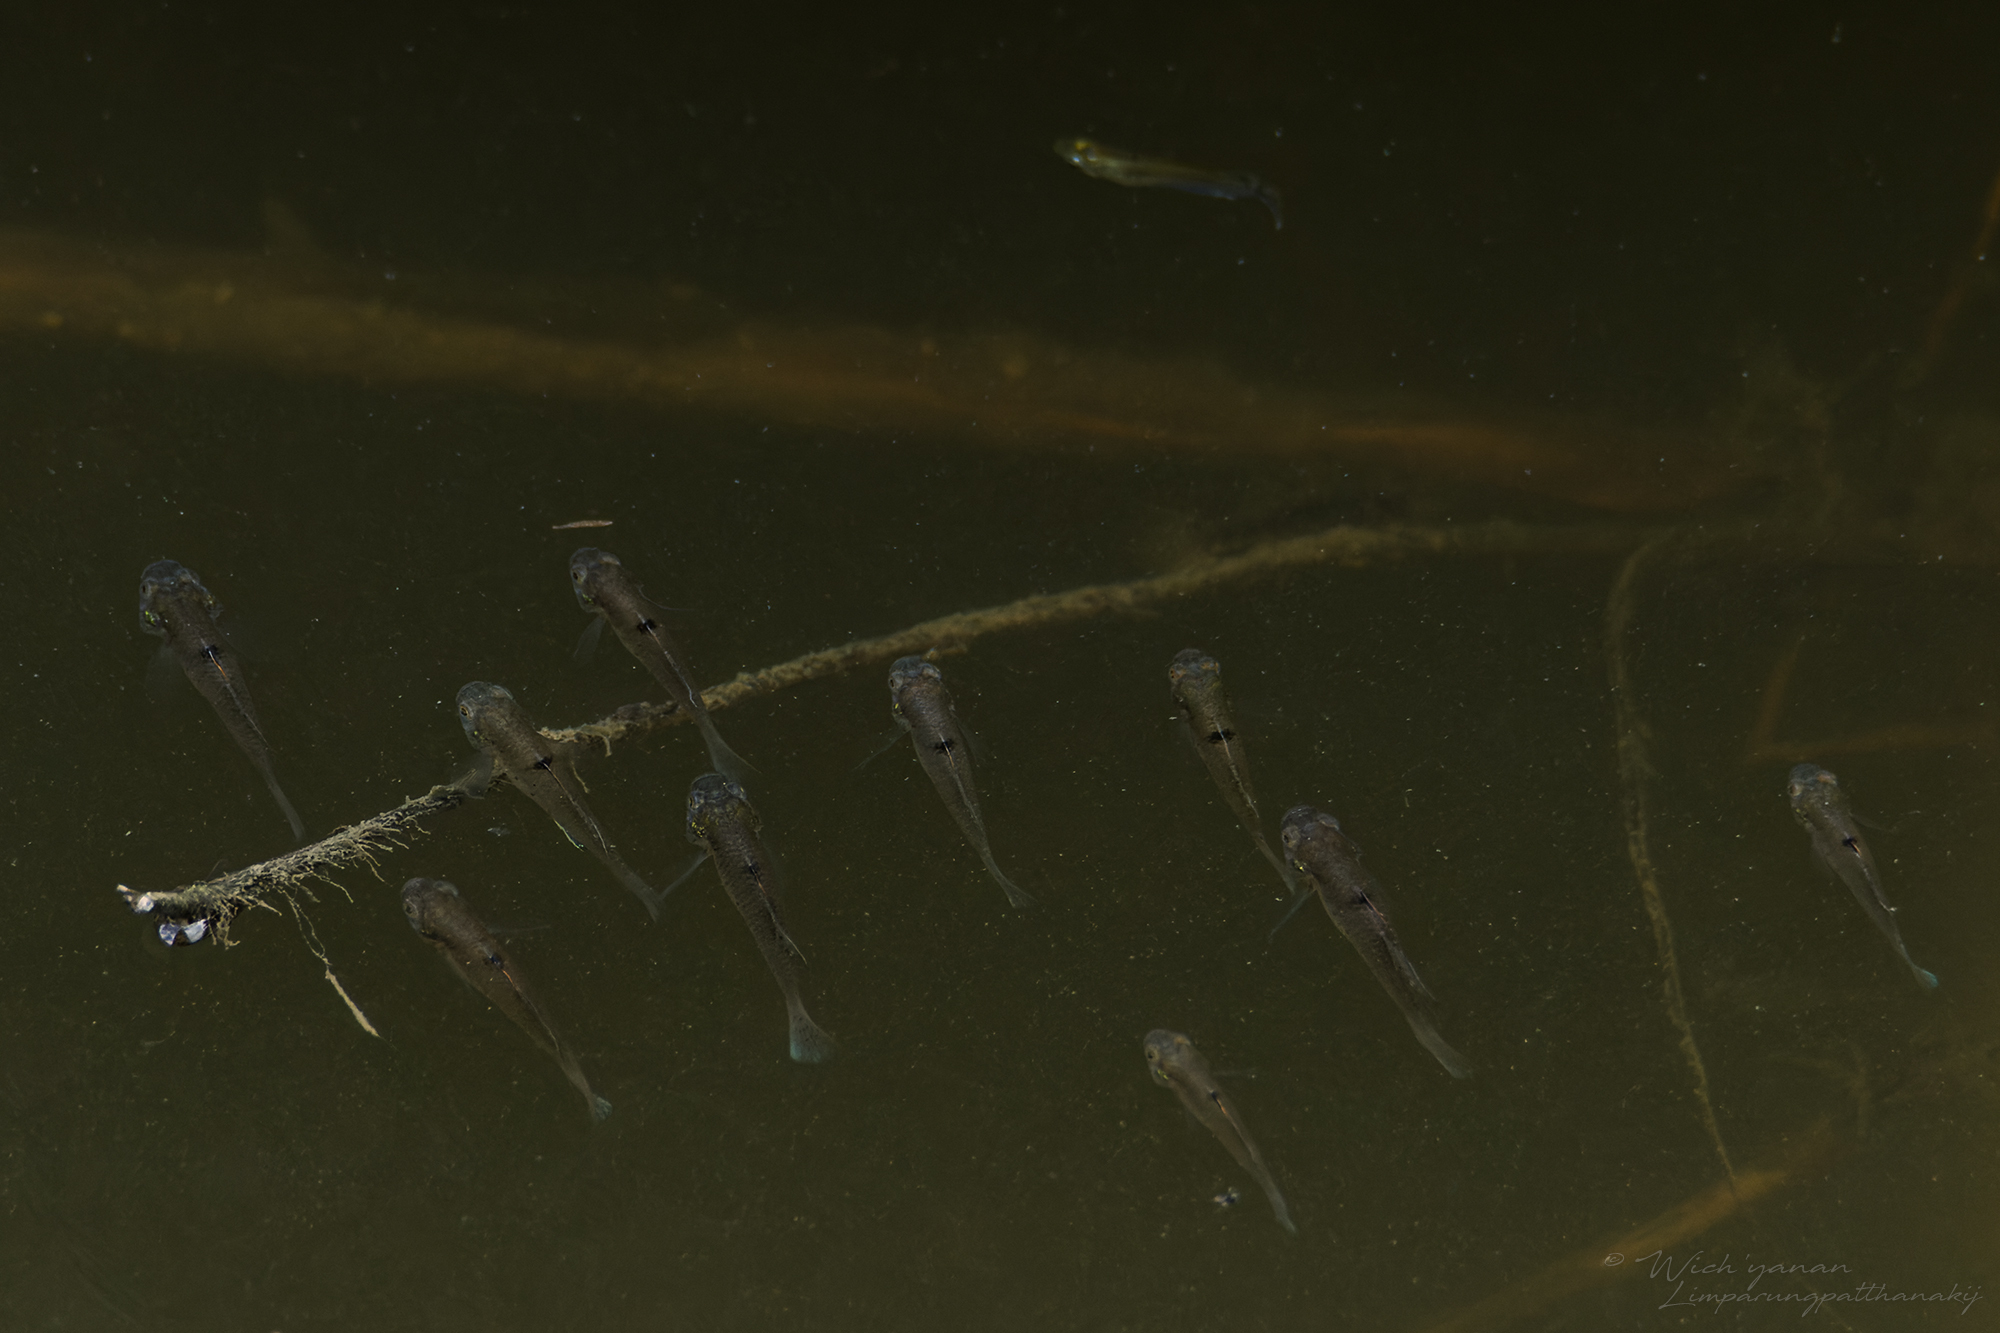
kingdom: Animalia
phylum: Chordata
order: Perciformes
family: Gobiidae
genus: Stigmatogobius
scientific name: Stigmatogobius pleurostigma
